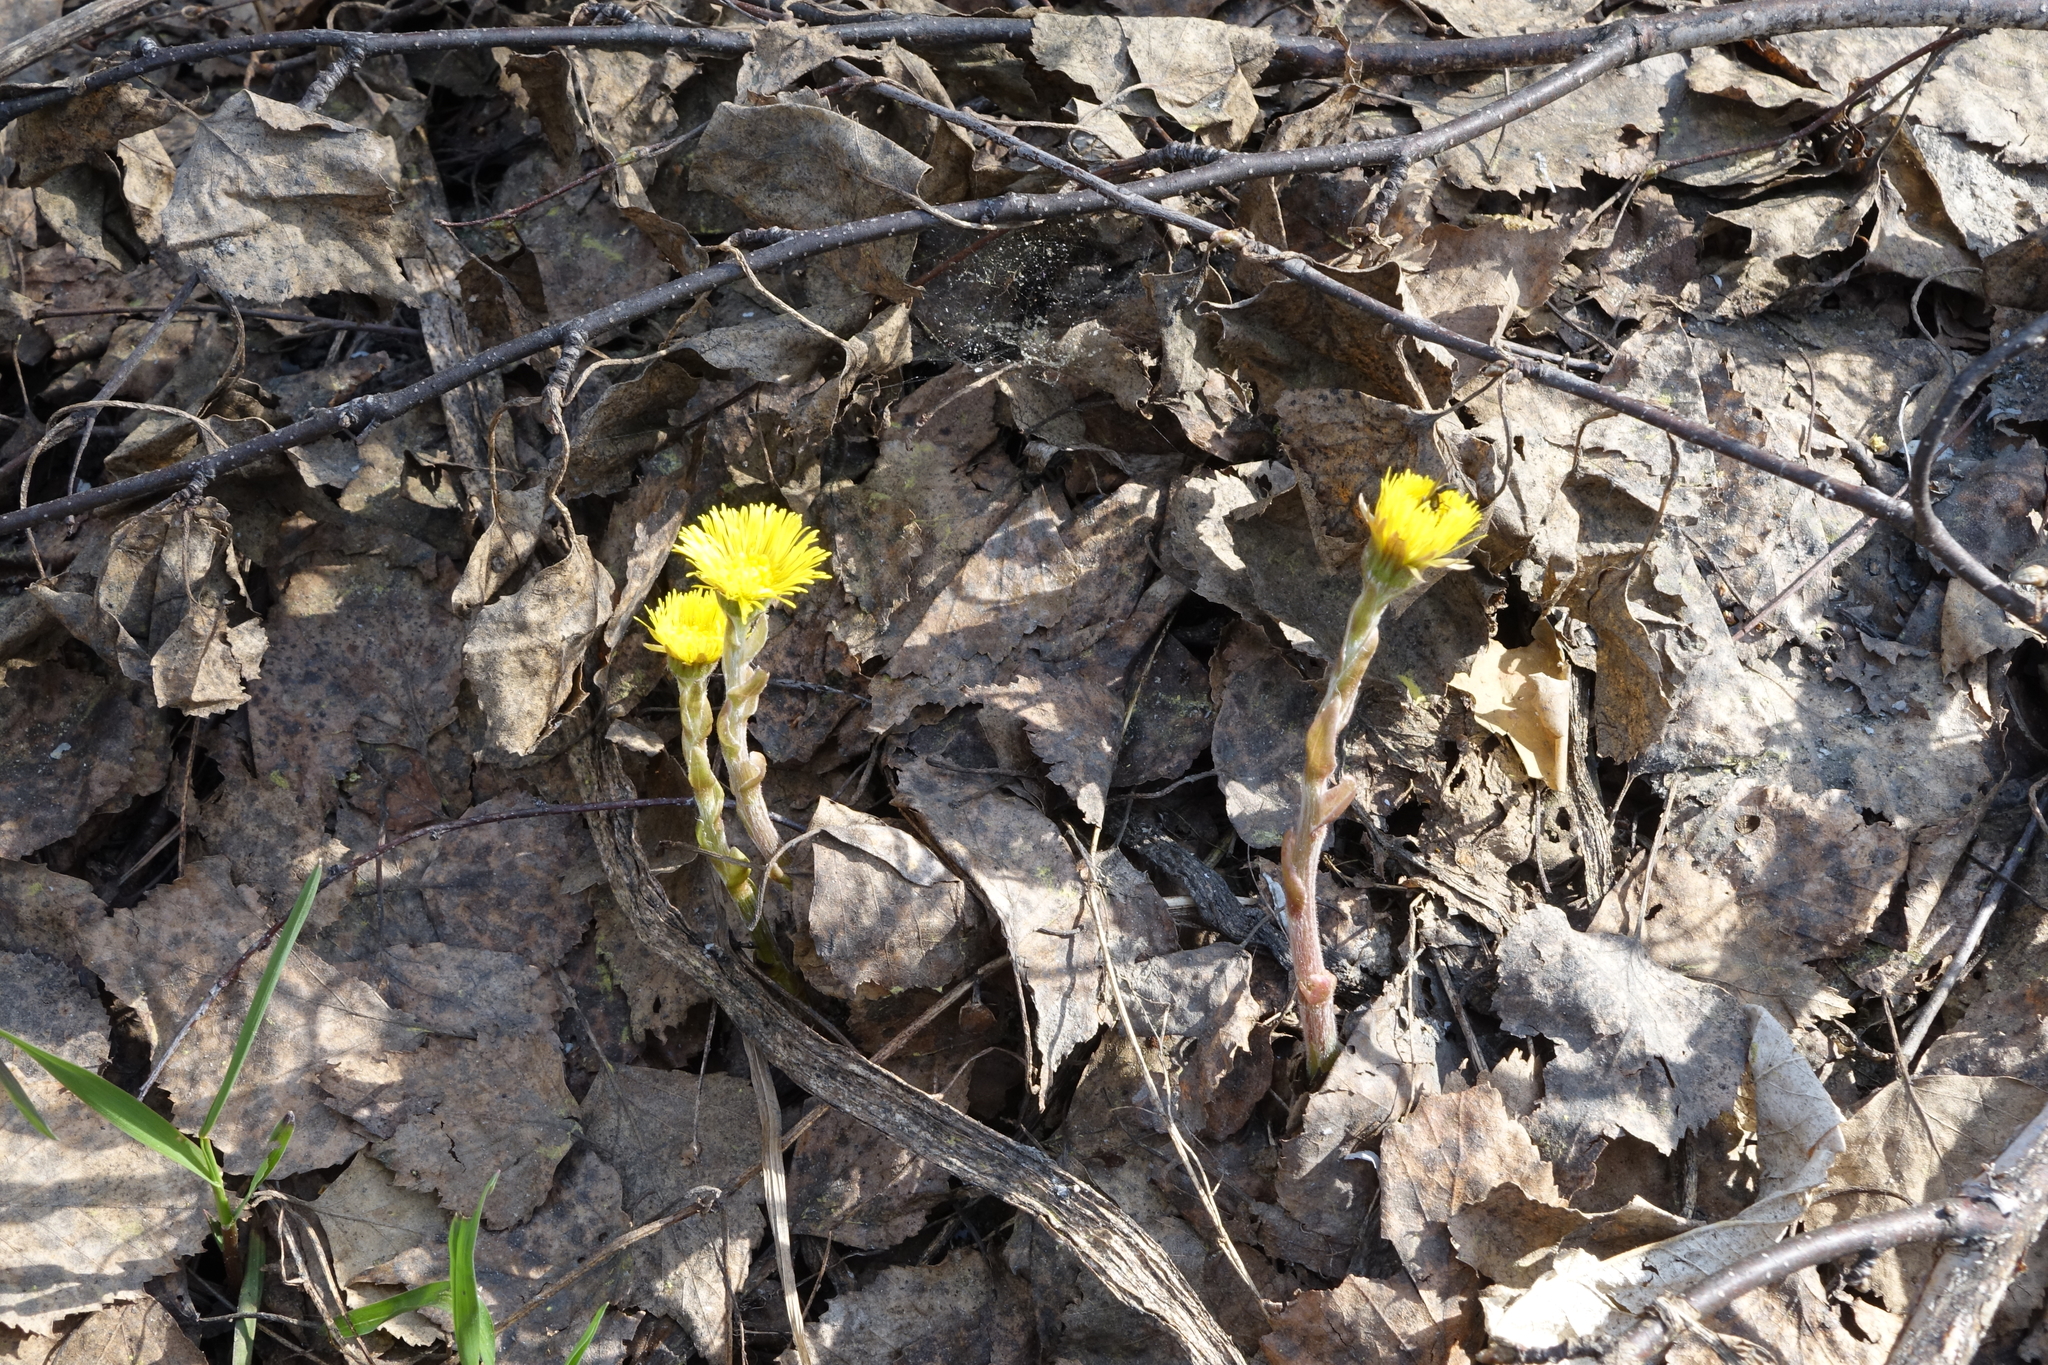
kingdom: Plantae
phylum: Tracheophyta
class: Magnoliopsida
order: Asterales
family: Asteraceae
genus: Tussilago
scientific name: Tussilago farfara
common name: Coltsfoot
